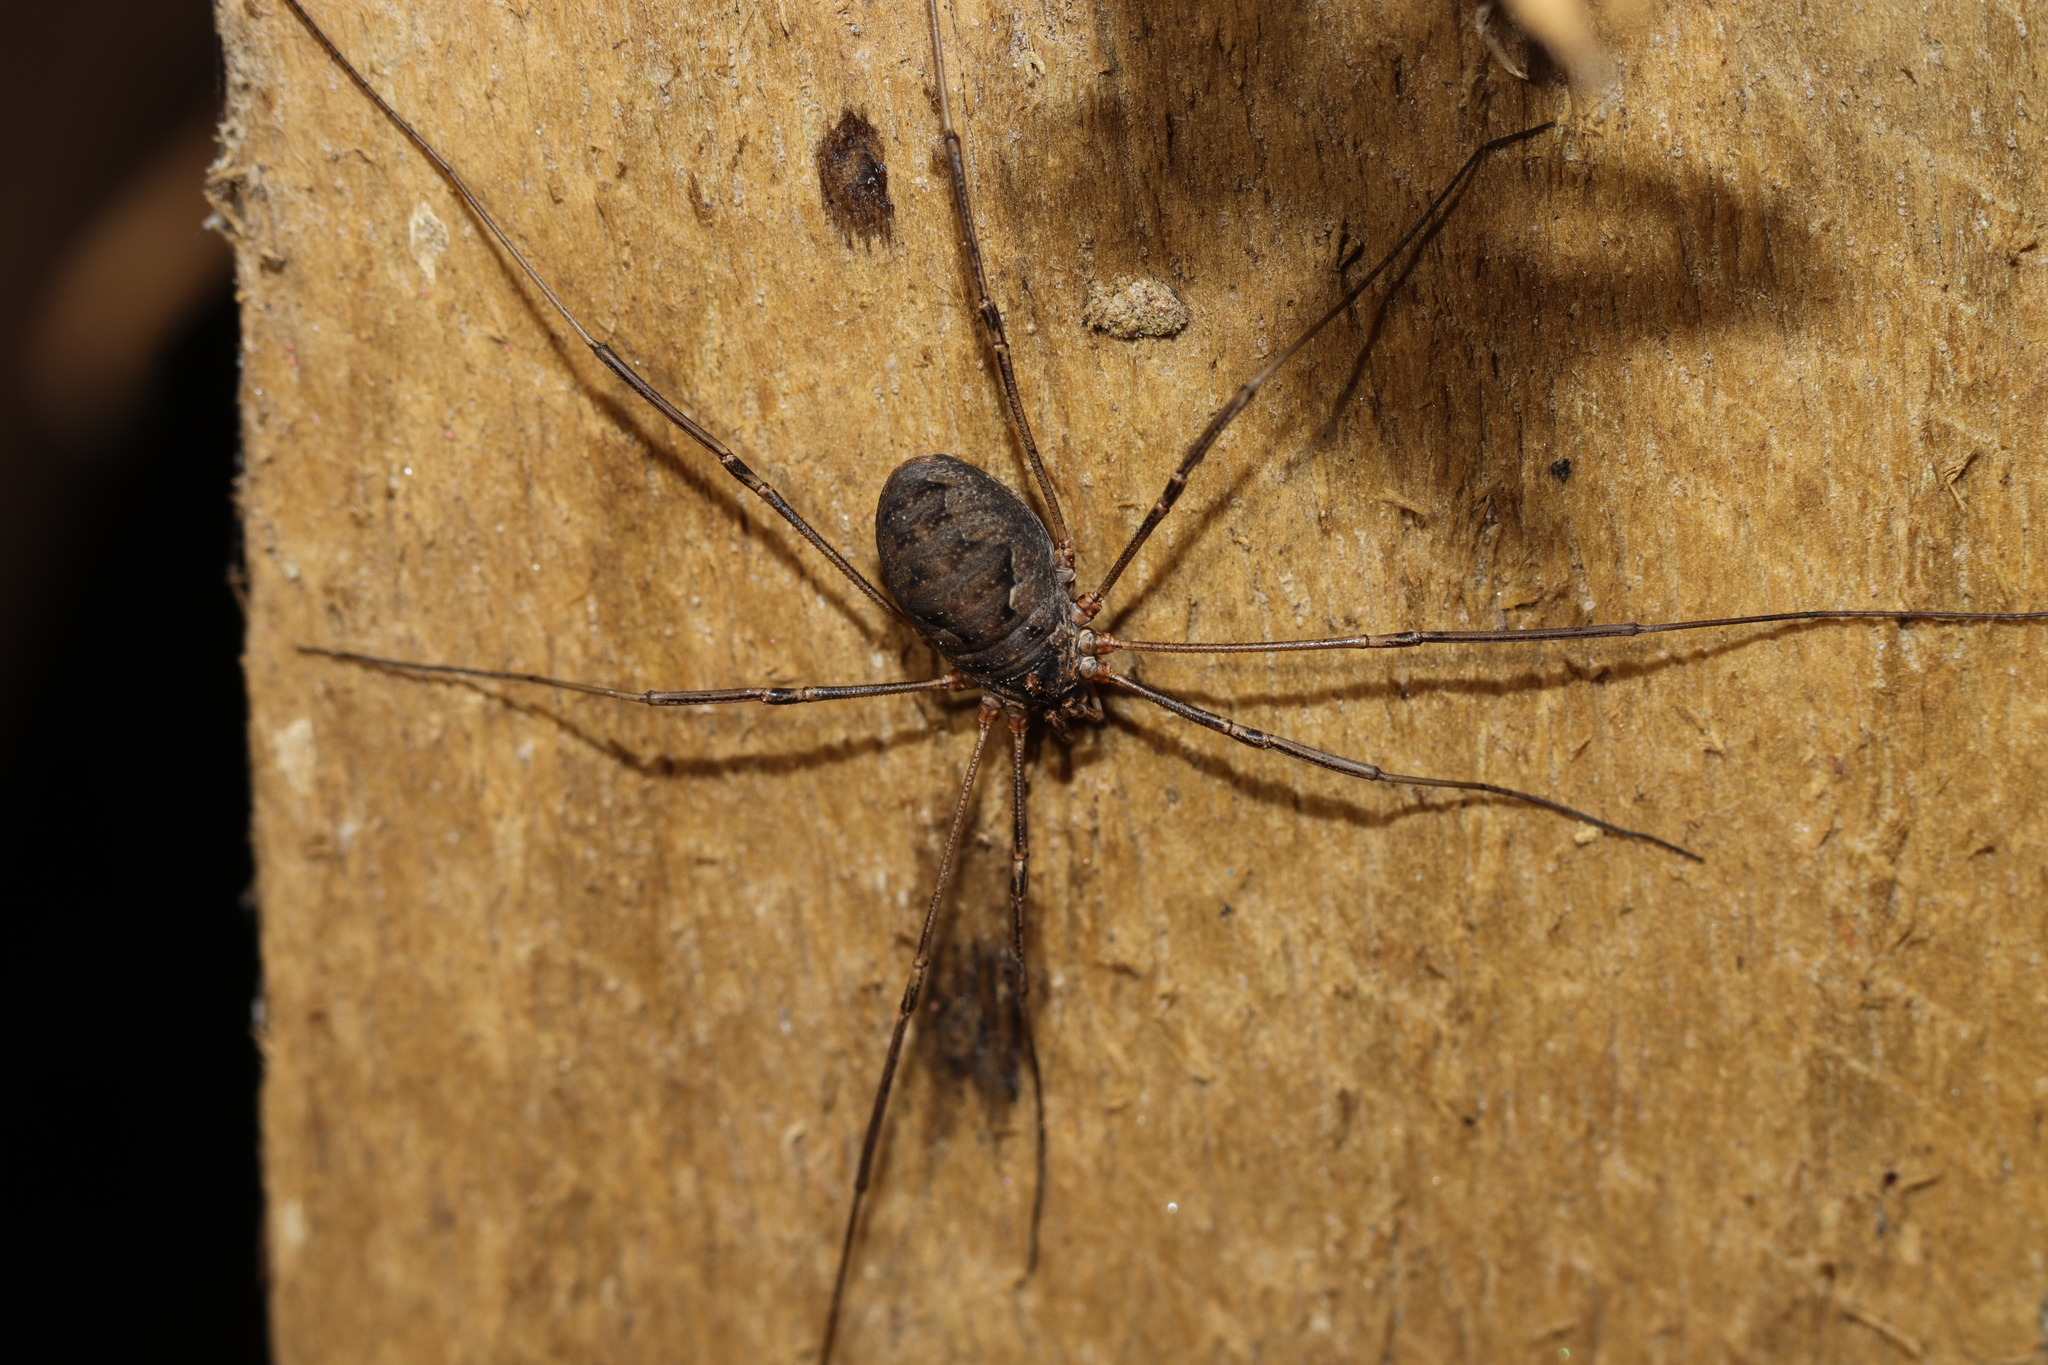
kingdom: Animalia
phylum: Arthropoda
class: Arachnida
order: Opiliones
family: Phalangiidae
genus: Phalangium
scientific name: Phalangium opilio
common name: Daddy longleg
